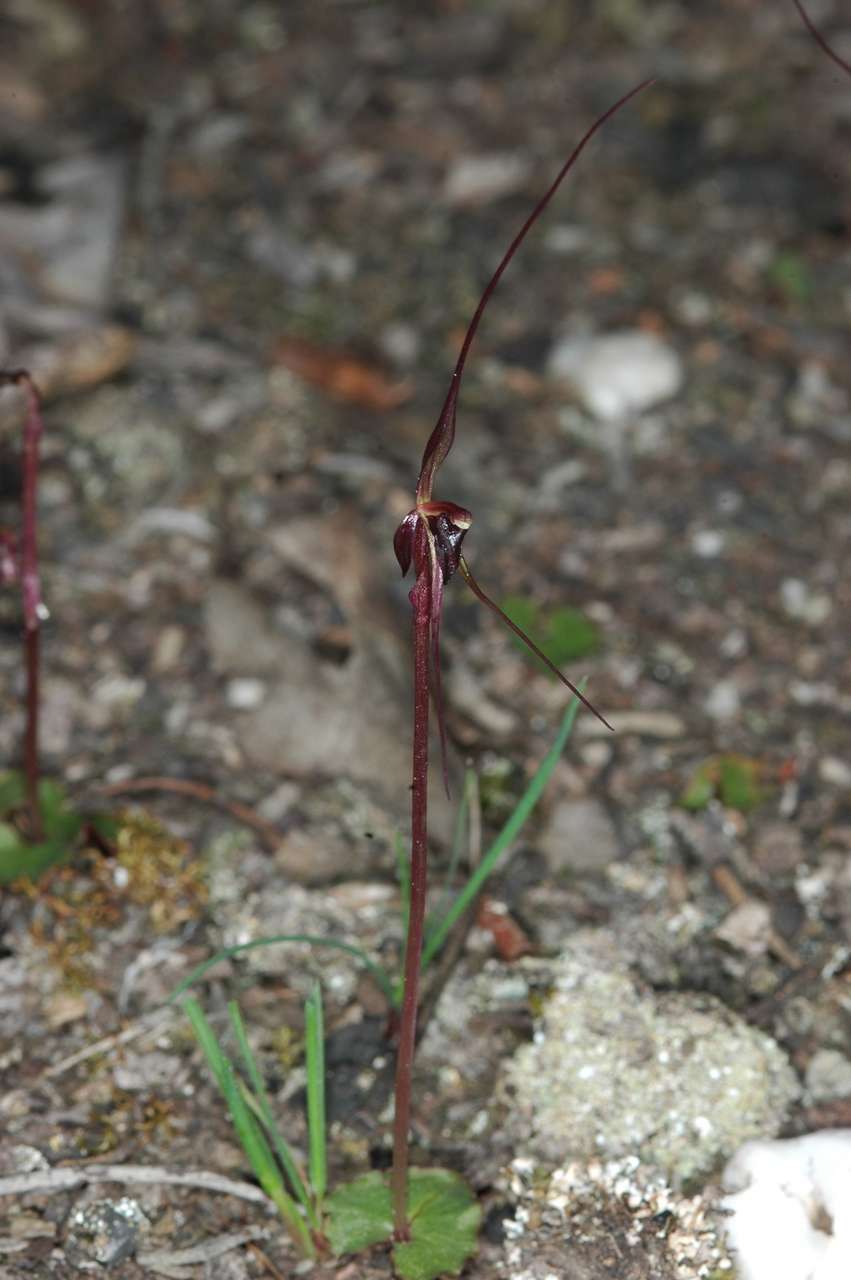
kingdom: Plantae
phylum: Tracheophyta
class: Liliopsida
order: Asparagales
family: Orchidaceae
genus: Acianthus
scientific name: Acianthus caudatus
